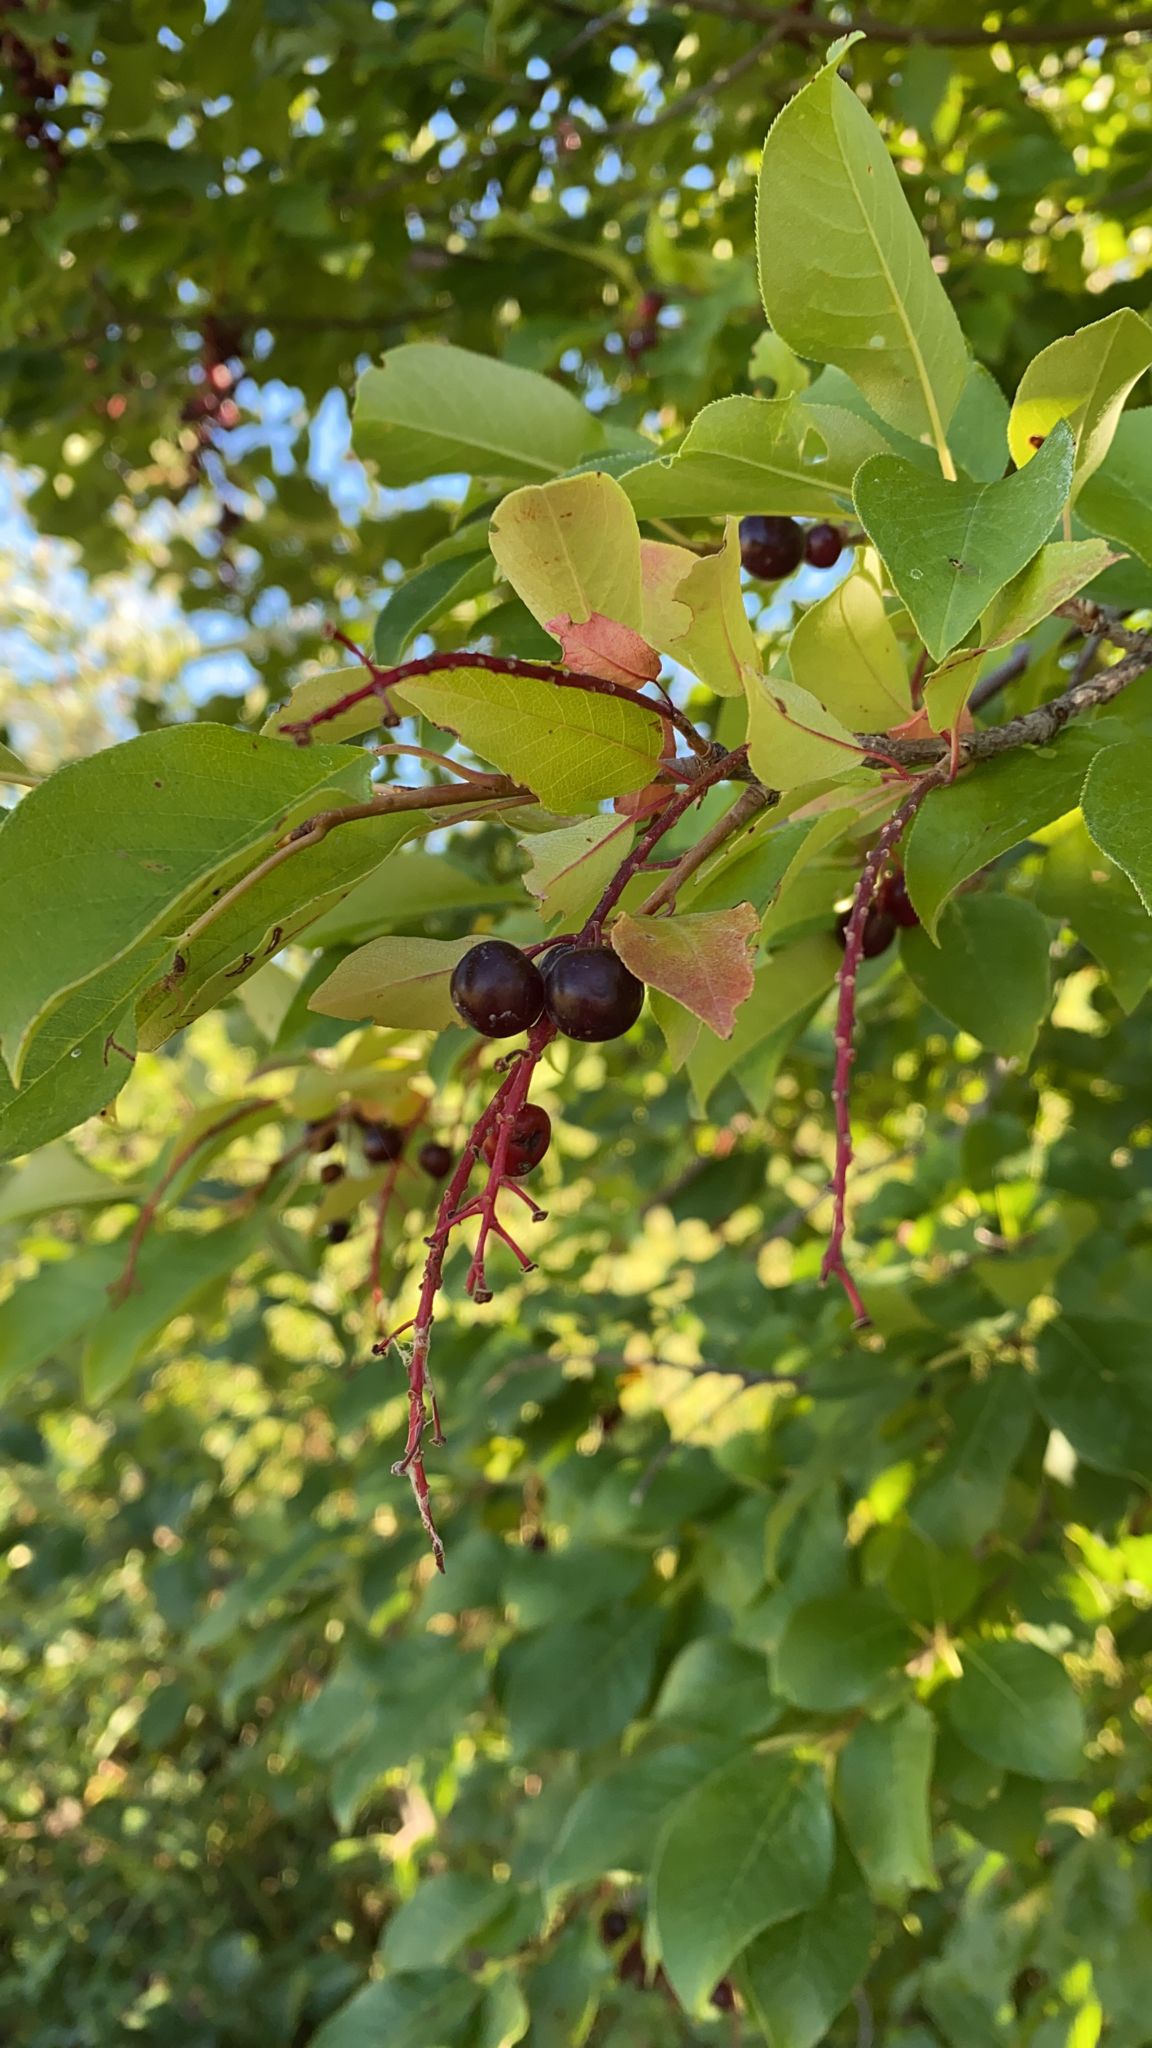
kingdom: Plantae
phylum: Tracheophyta
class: Magnoliopsida
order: Rosales
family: Rosaceae
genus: Prunus
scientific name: Prunus virginiana
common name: Chokecherry
